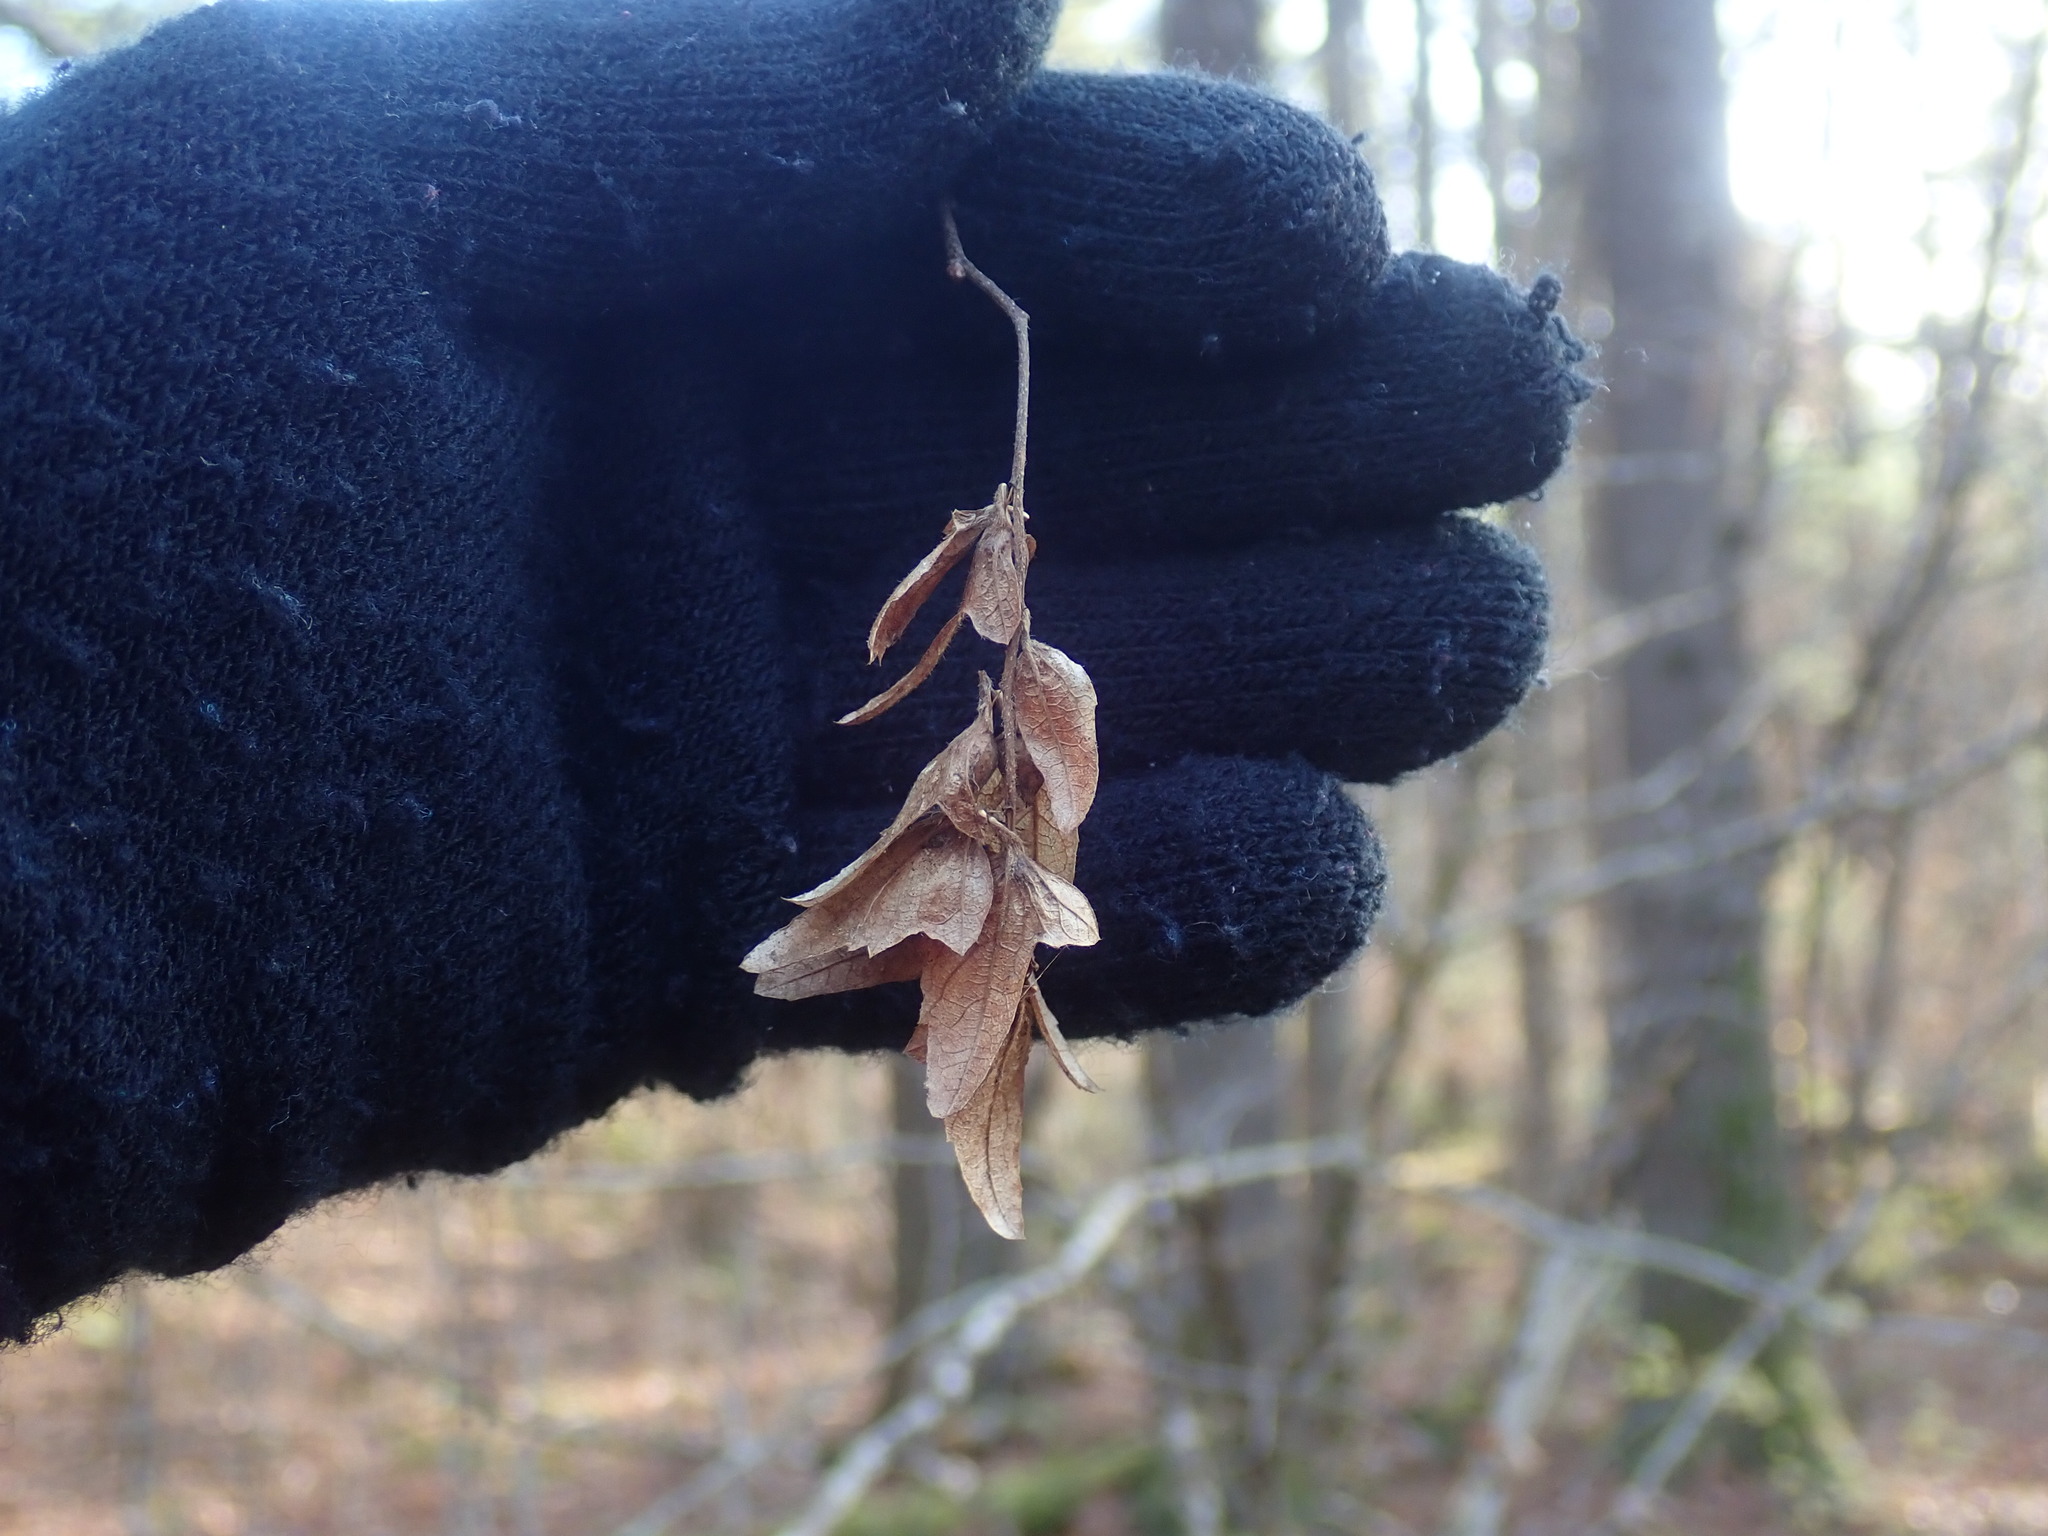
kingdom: Plantae
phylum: Tracheophyta
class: Magnoliopsida
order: Fagales
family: Betulaceae
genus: Carpinus
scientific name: Carpinus caroliniana
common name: American hornbeam
